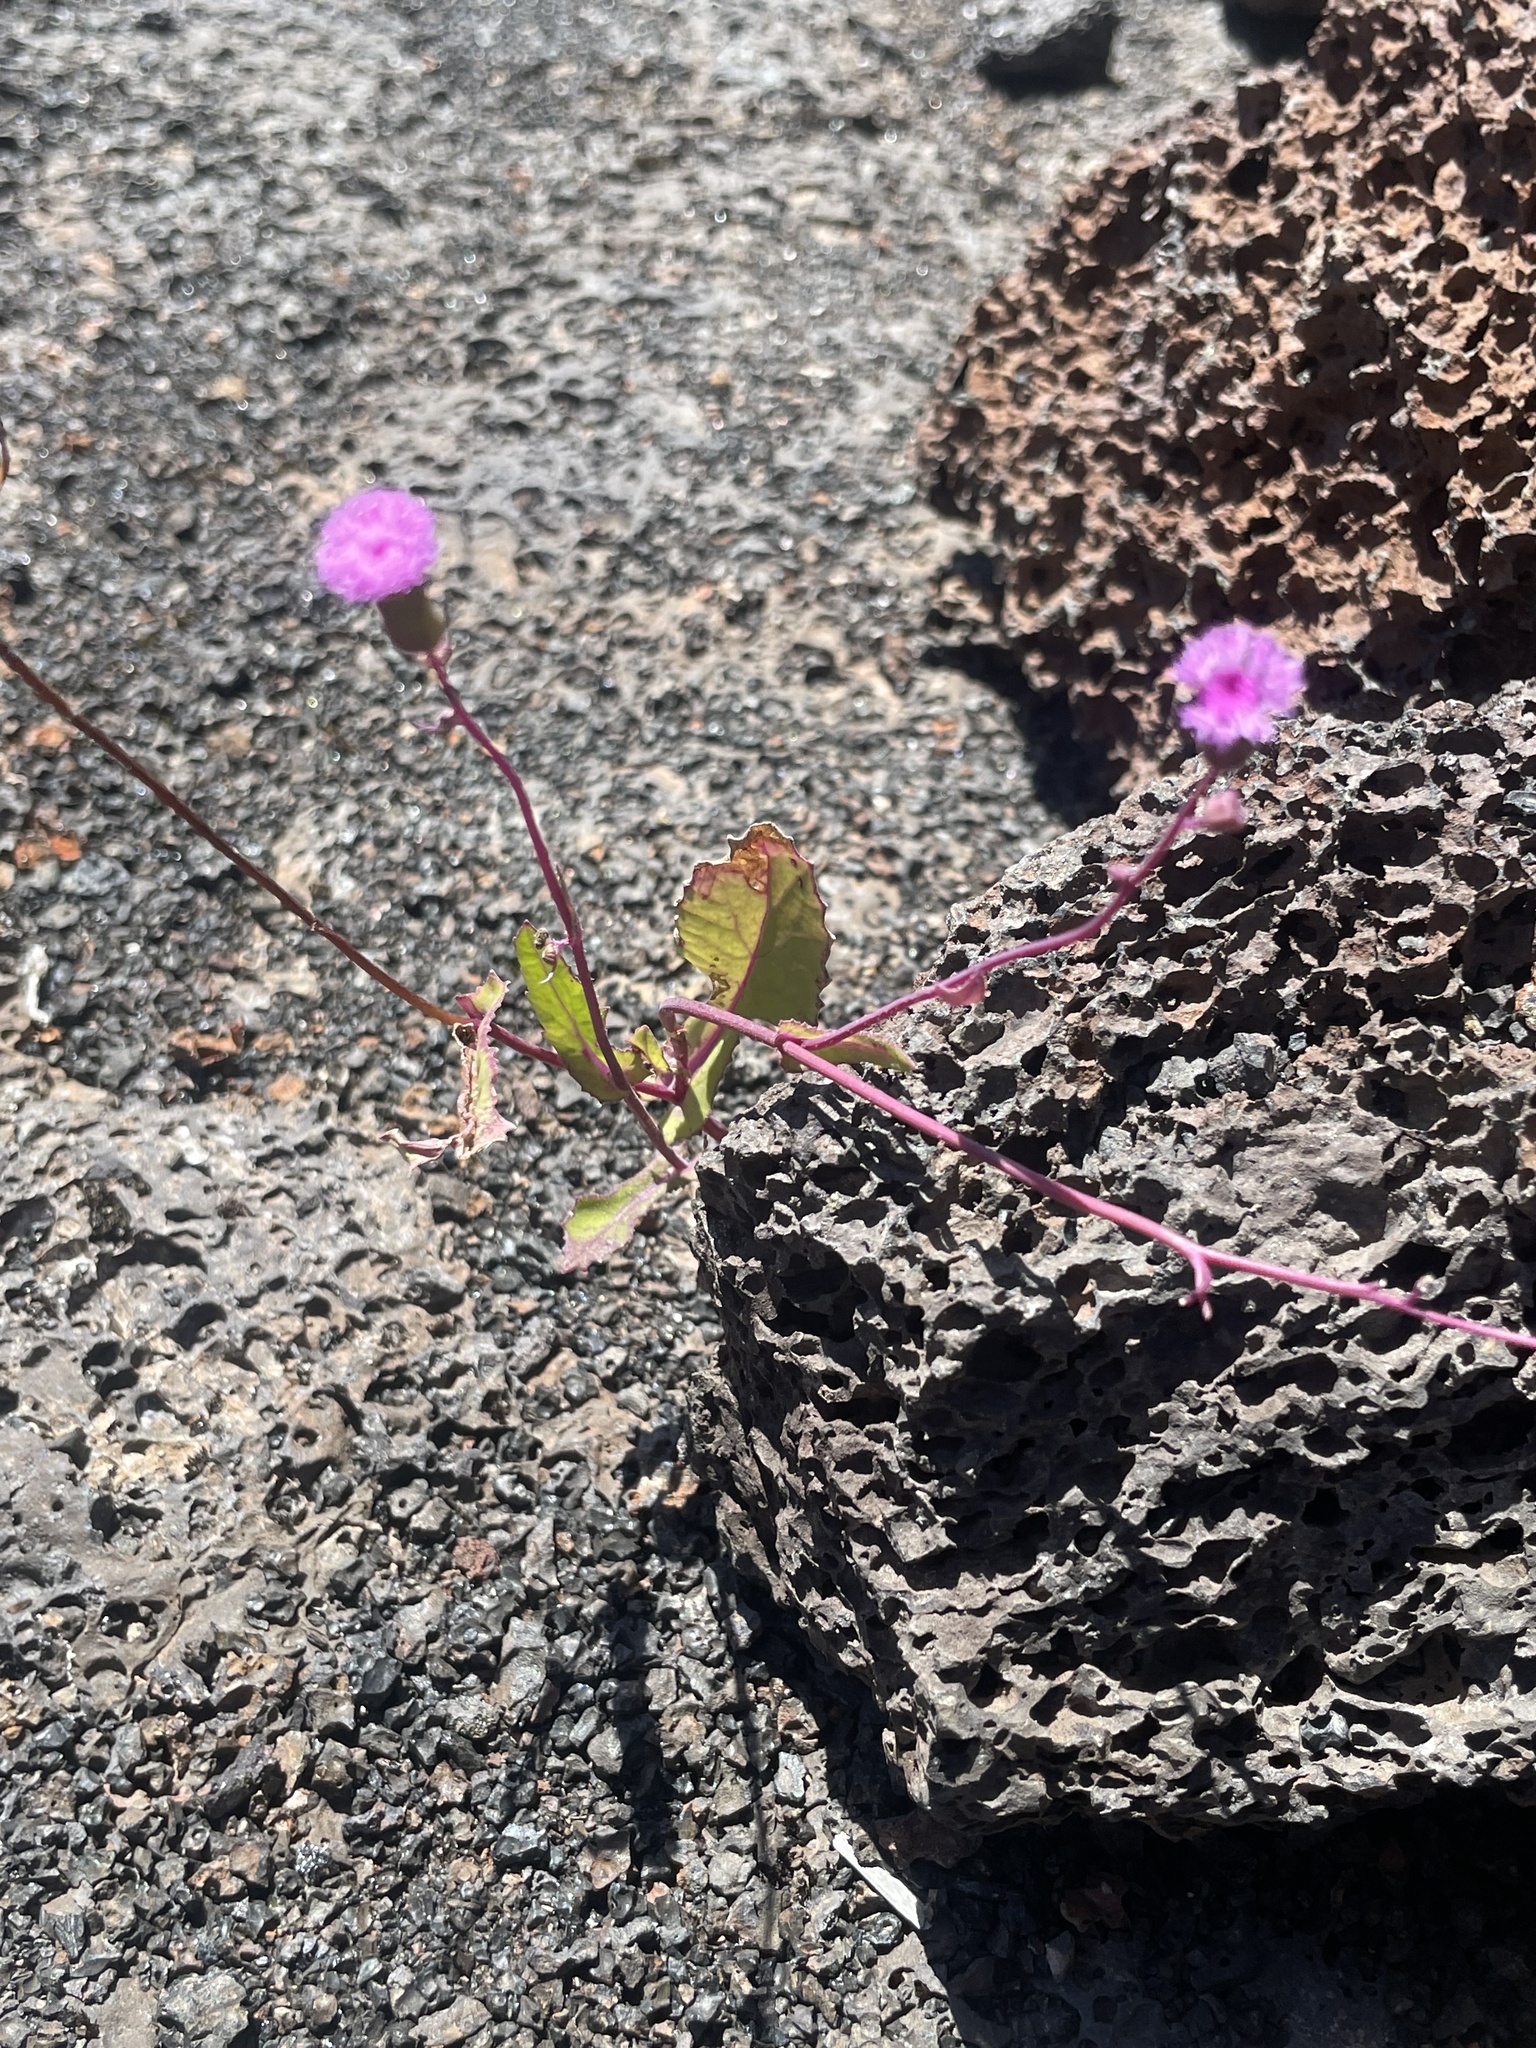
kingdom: Plantae
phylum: Tracheophyta
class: Magnoliopsida
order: Asterales
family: Asteraceae
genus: Emilia
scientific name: Emilia sonchifolia
